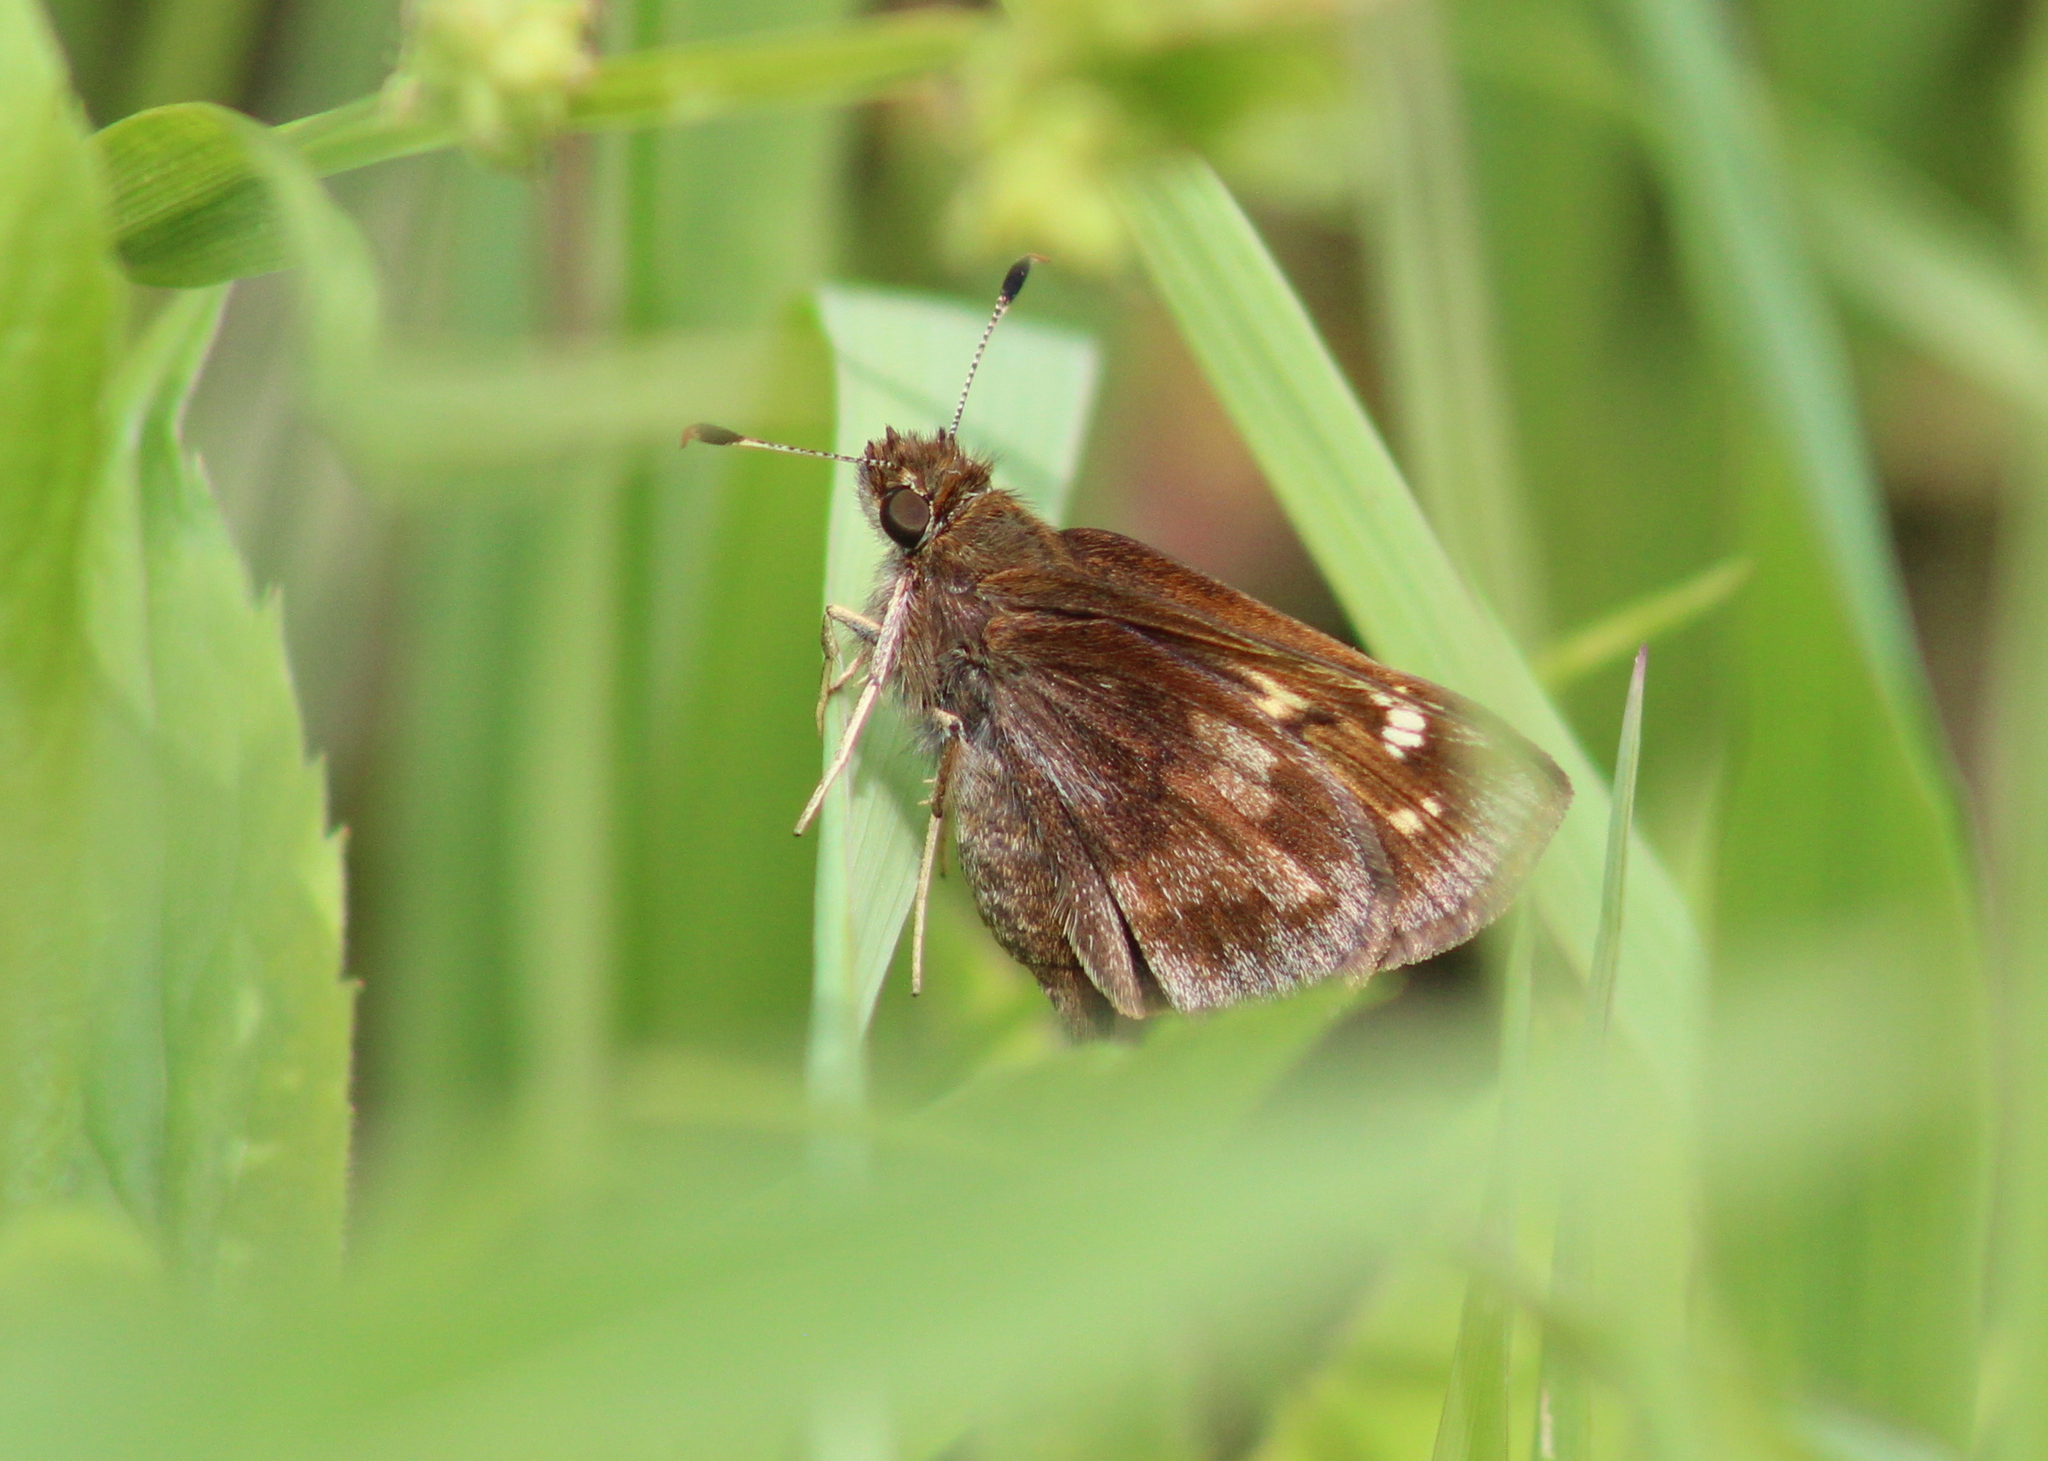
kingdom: Animalia
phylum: Arthropoda
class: Insecta
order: Lepidoptera
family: Hesperiidae
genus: Lon
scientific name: Lon hobomok
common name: Hobomok skipper
